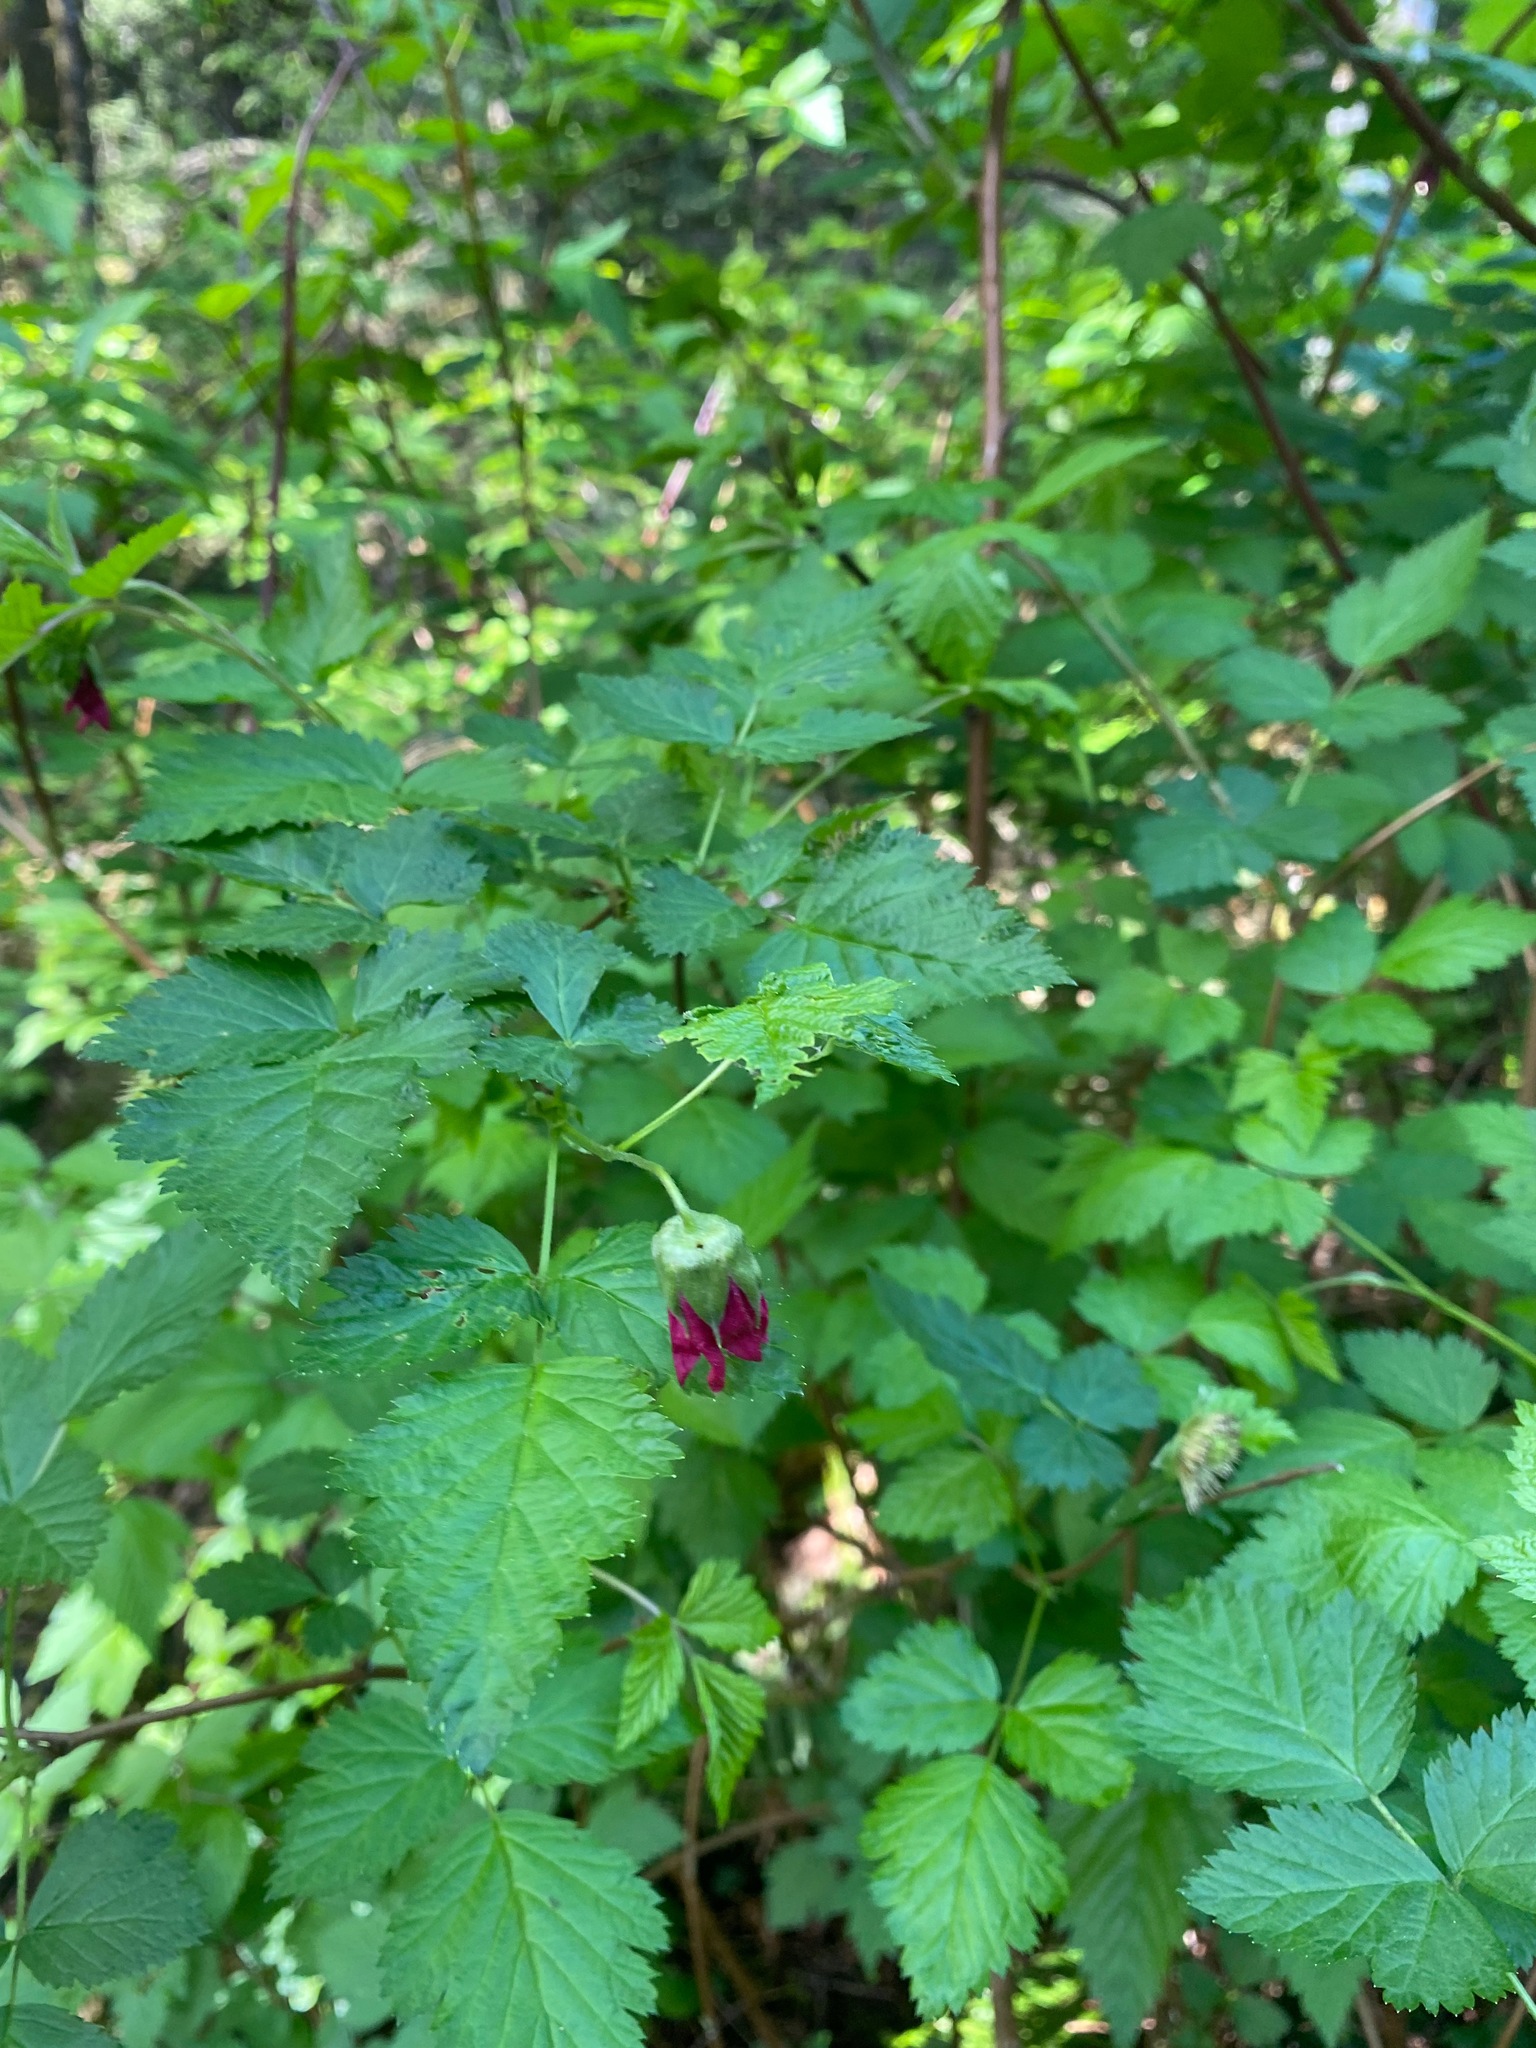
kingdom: Plantae
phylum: Tracheophyta
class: Magnoliopsida
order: Rosales
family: Rosaceae
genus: Rubus
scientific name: Rubus spectabilis
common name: Salmonberry
